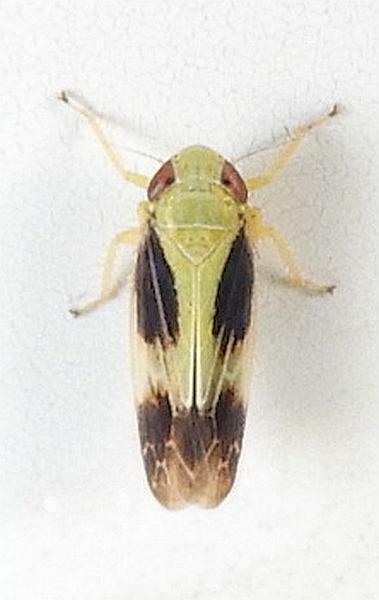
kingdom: Animalia
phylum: Arthropoda
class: Insecta
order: Hemiptera
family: Cicadellidae
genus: Graminella
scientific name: Graminella nigripennis
